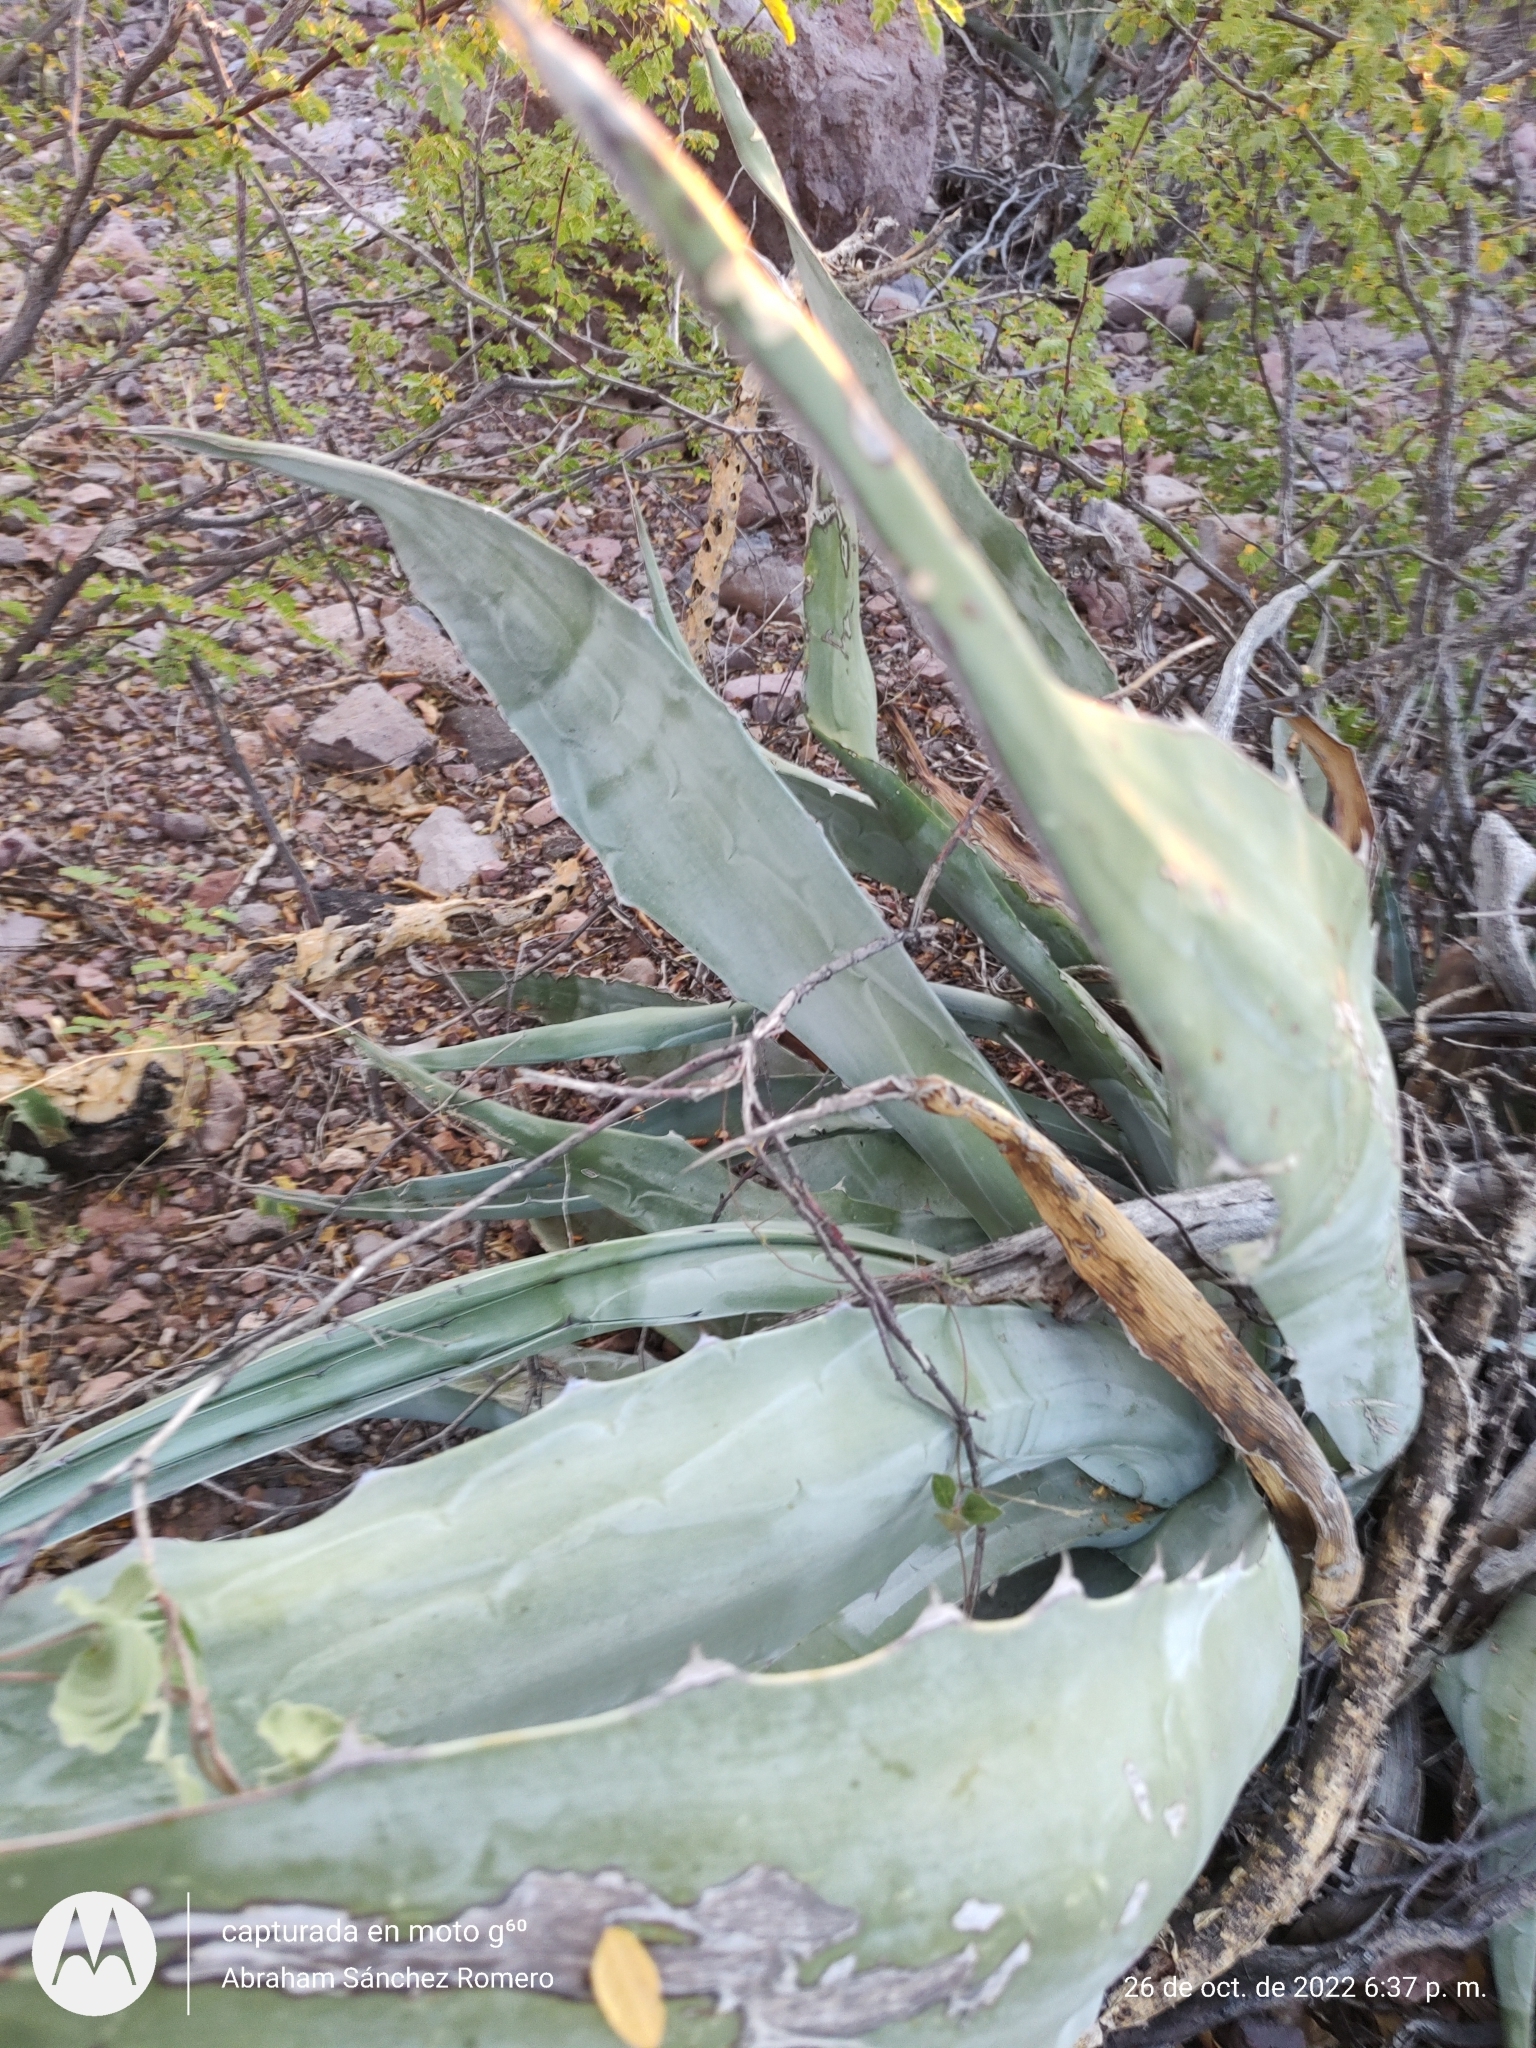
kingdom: Plantae
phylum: Tracheophyta
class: Liliopsida
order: Asparagales
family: Asparagaceae
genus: Agave
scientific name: Agave sobria
